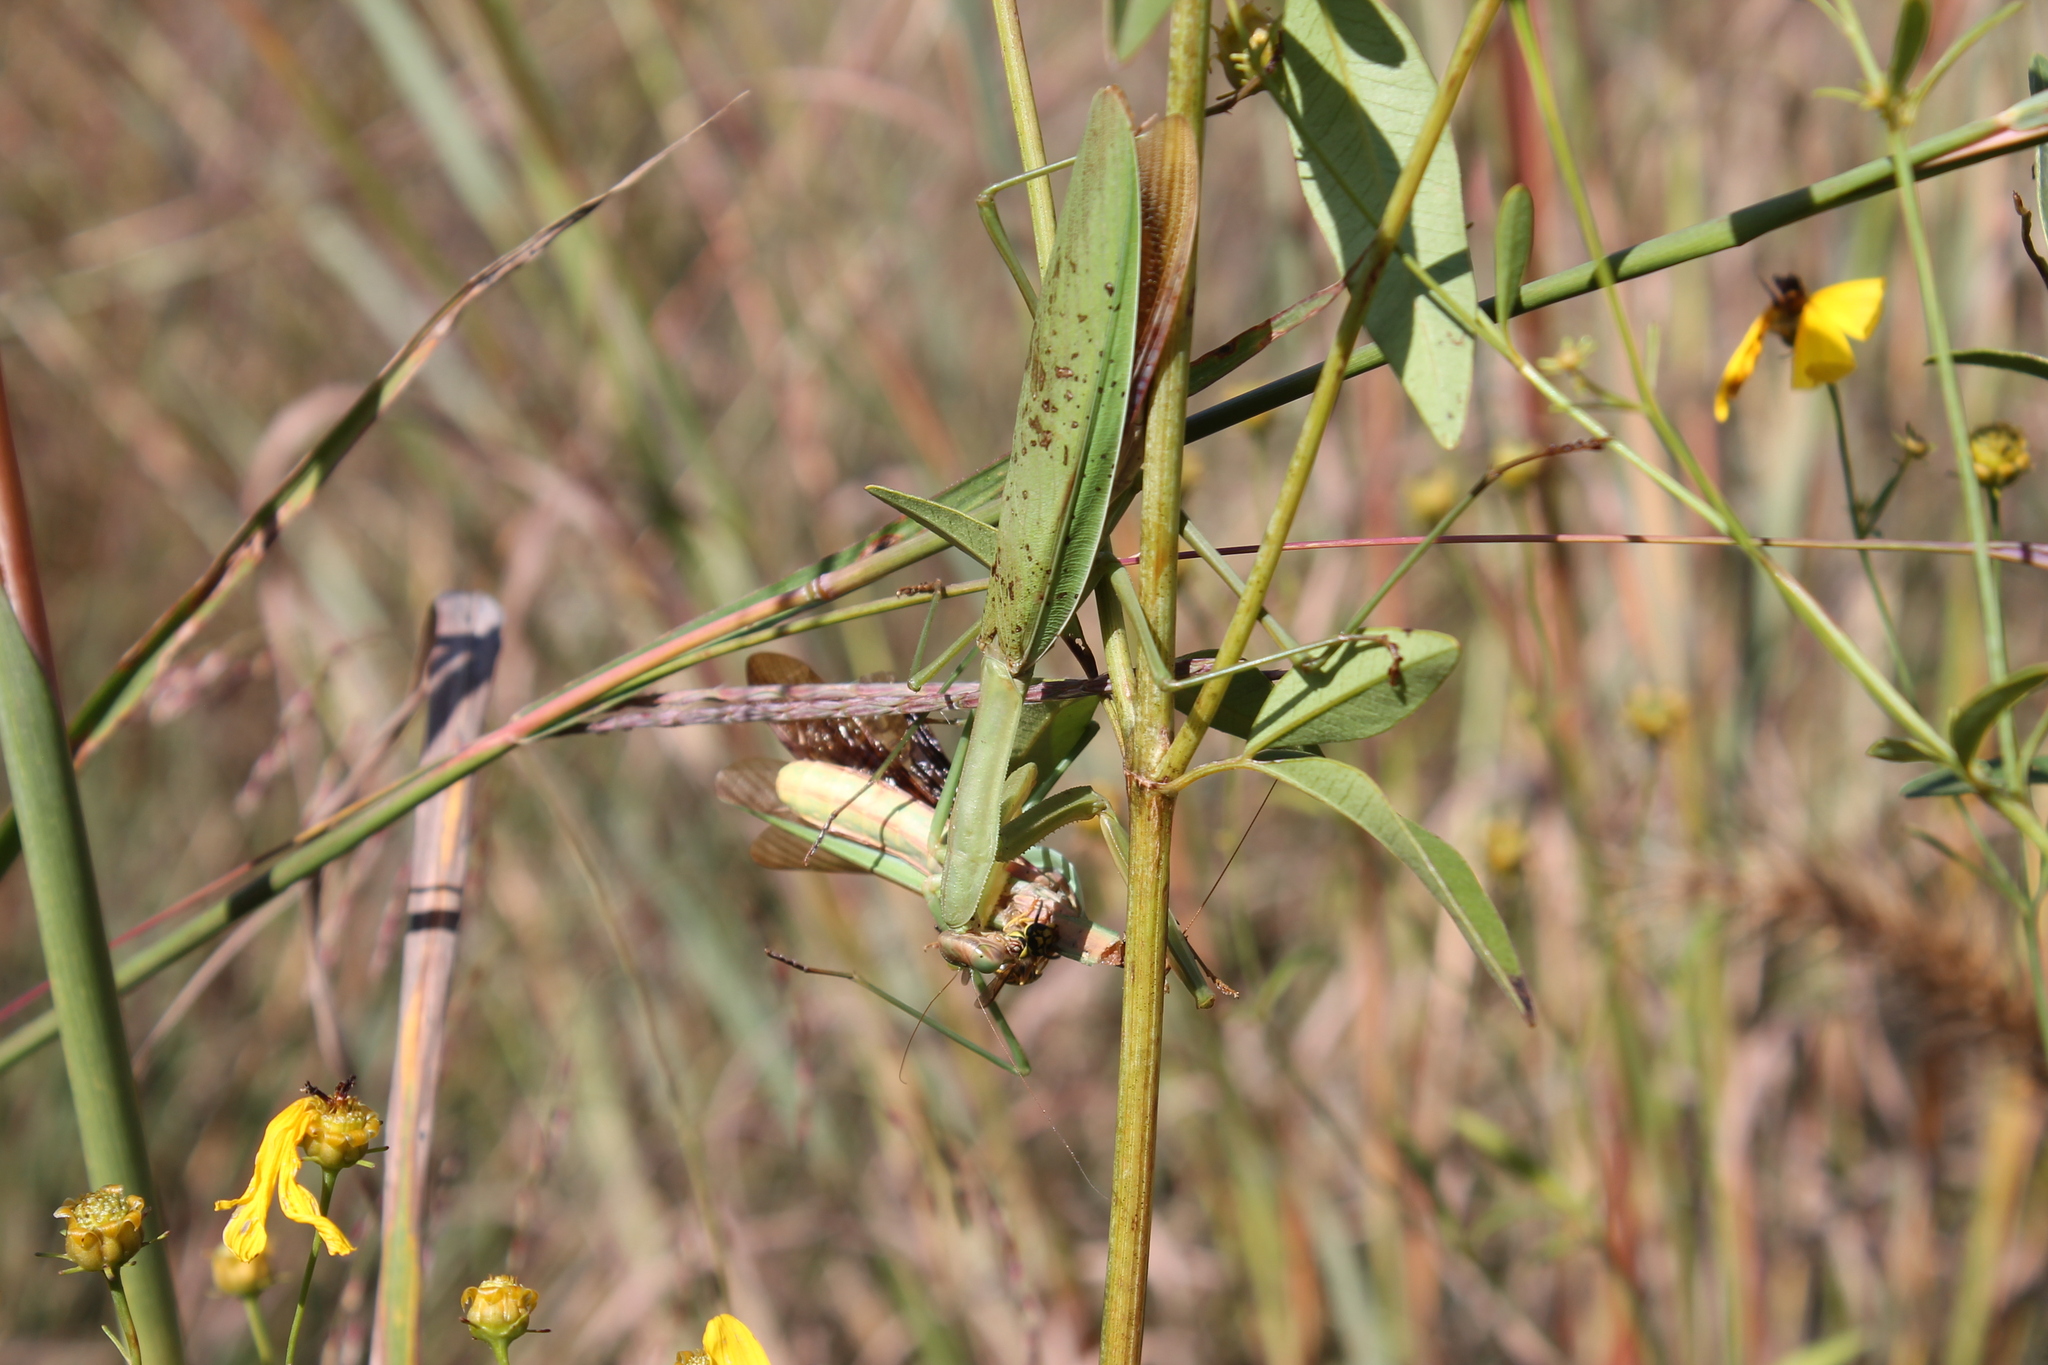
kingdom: Animalia
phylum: Arthropoda
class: Insecta
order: Mantodea
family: Mantidae
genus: Tenodera
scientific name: Tenodera sinensis
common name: Chinese mantis
